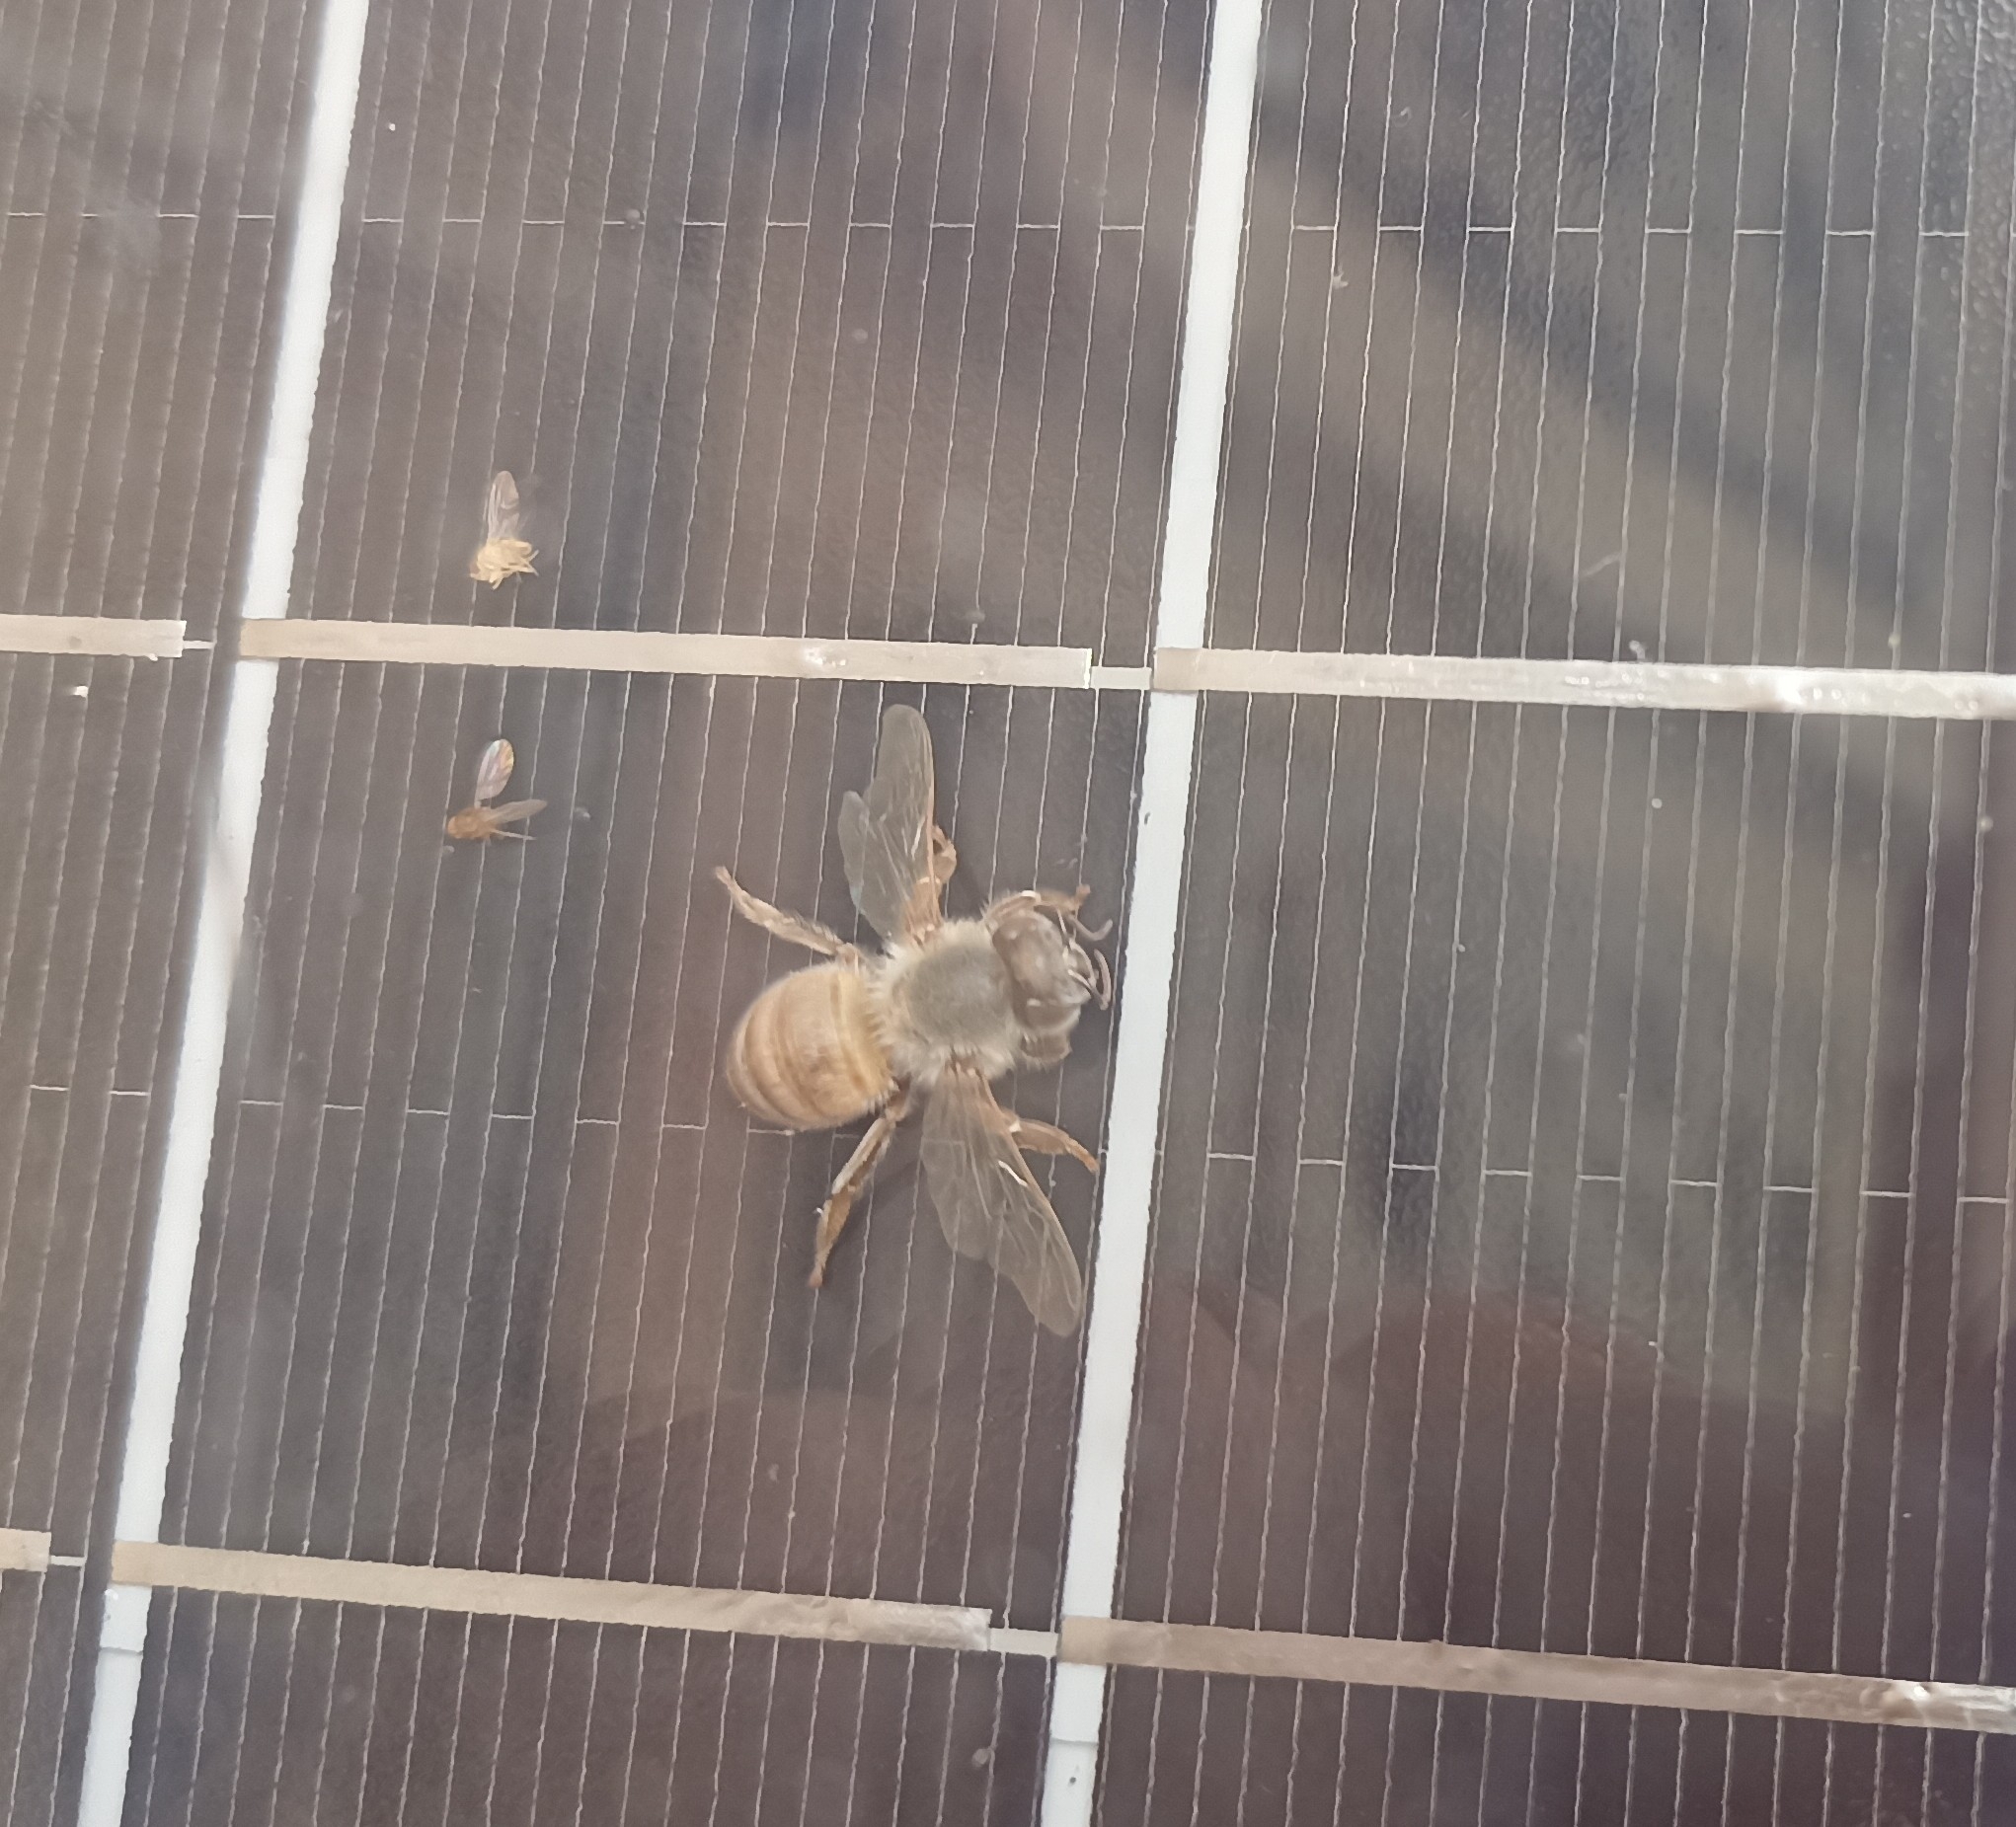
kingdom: Animalia
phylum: Arthropoda
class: Insecta
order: Hymenoptera
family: Apidae
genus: Apis
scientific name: Apis mellifera
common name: Honey bee
